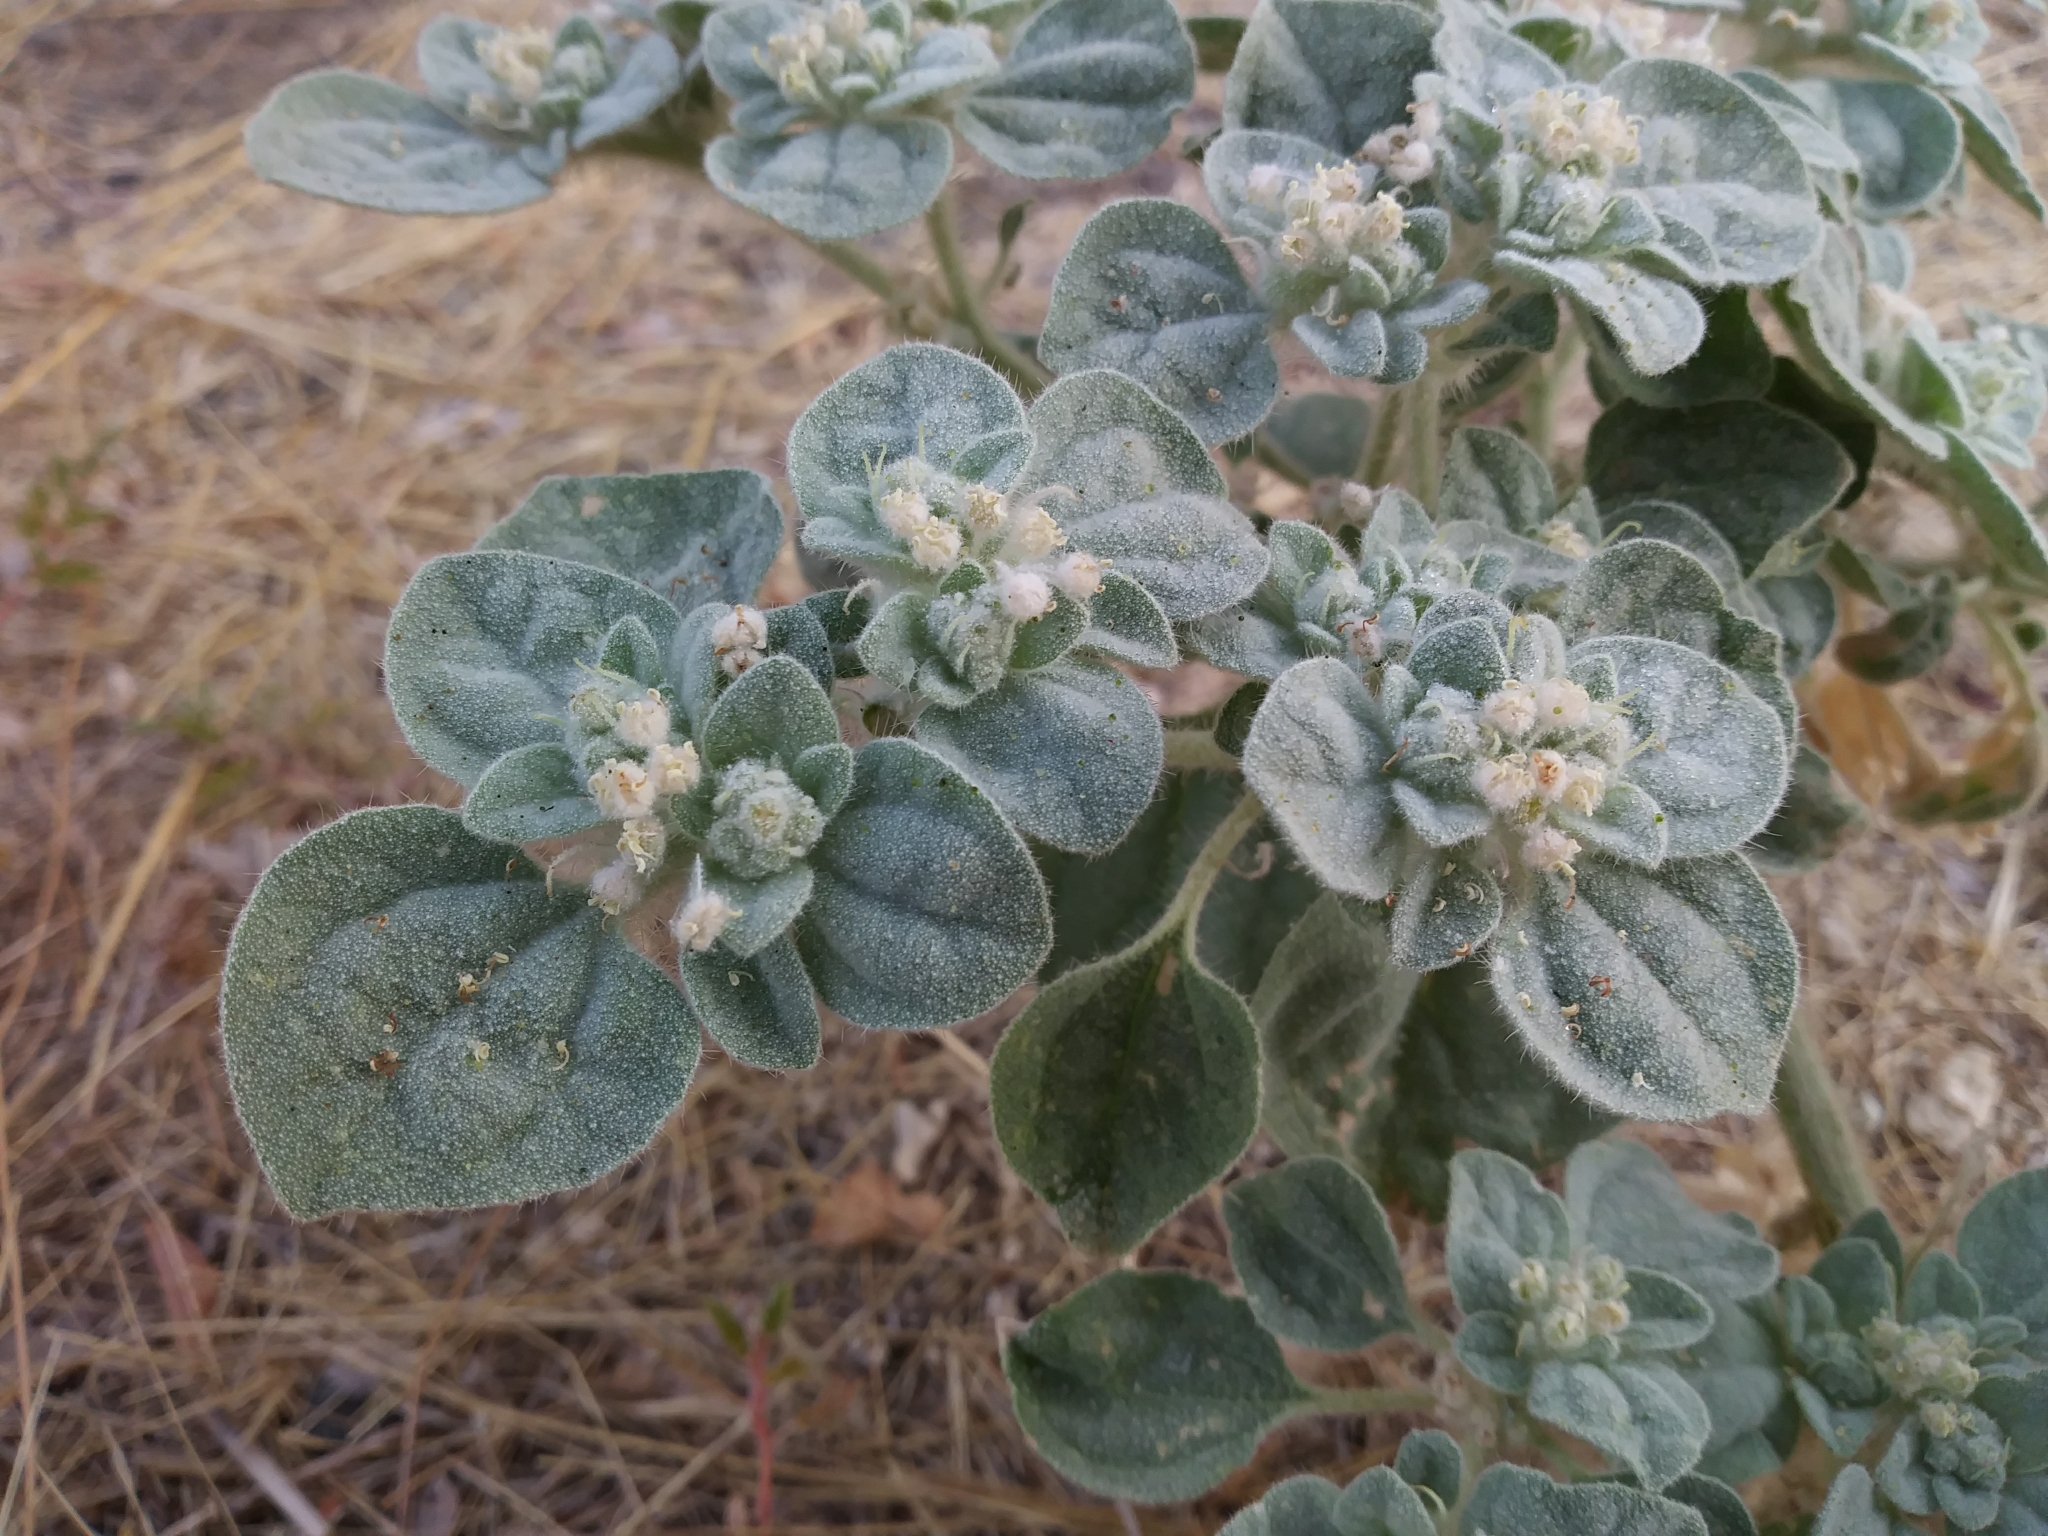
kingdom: Plantae
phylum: Tracheophyta
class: Magnoliopsida
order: Malpighiales
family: Euphorbiaceae
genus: Croton
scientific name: Croton setiger
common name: Dove weed
